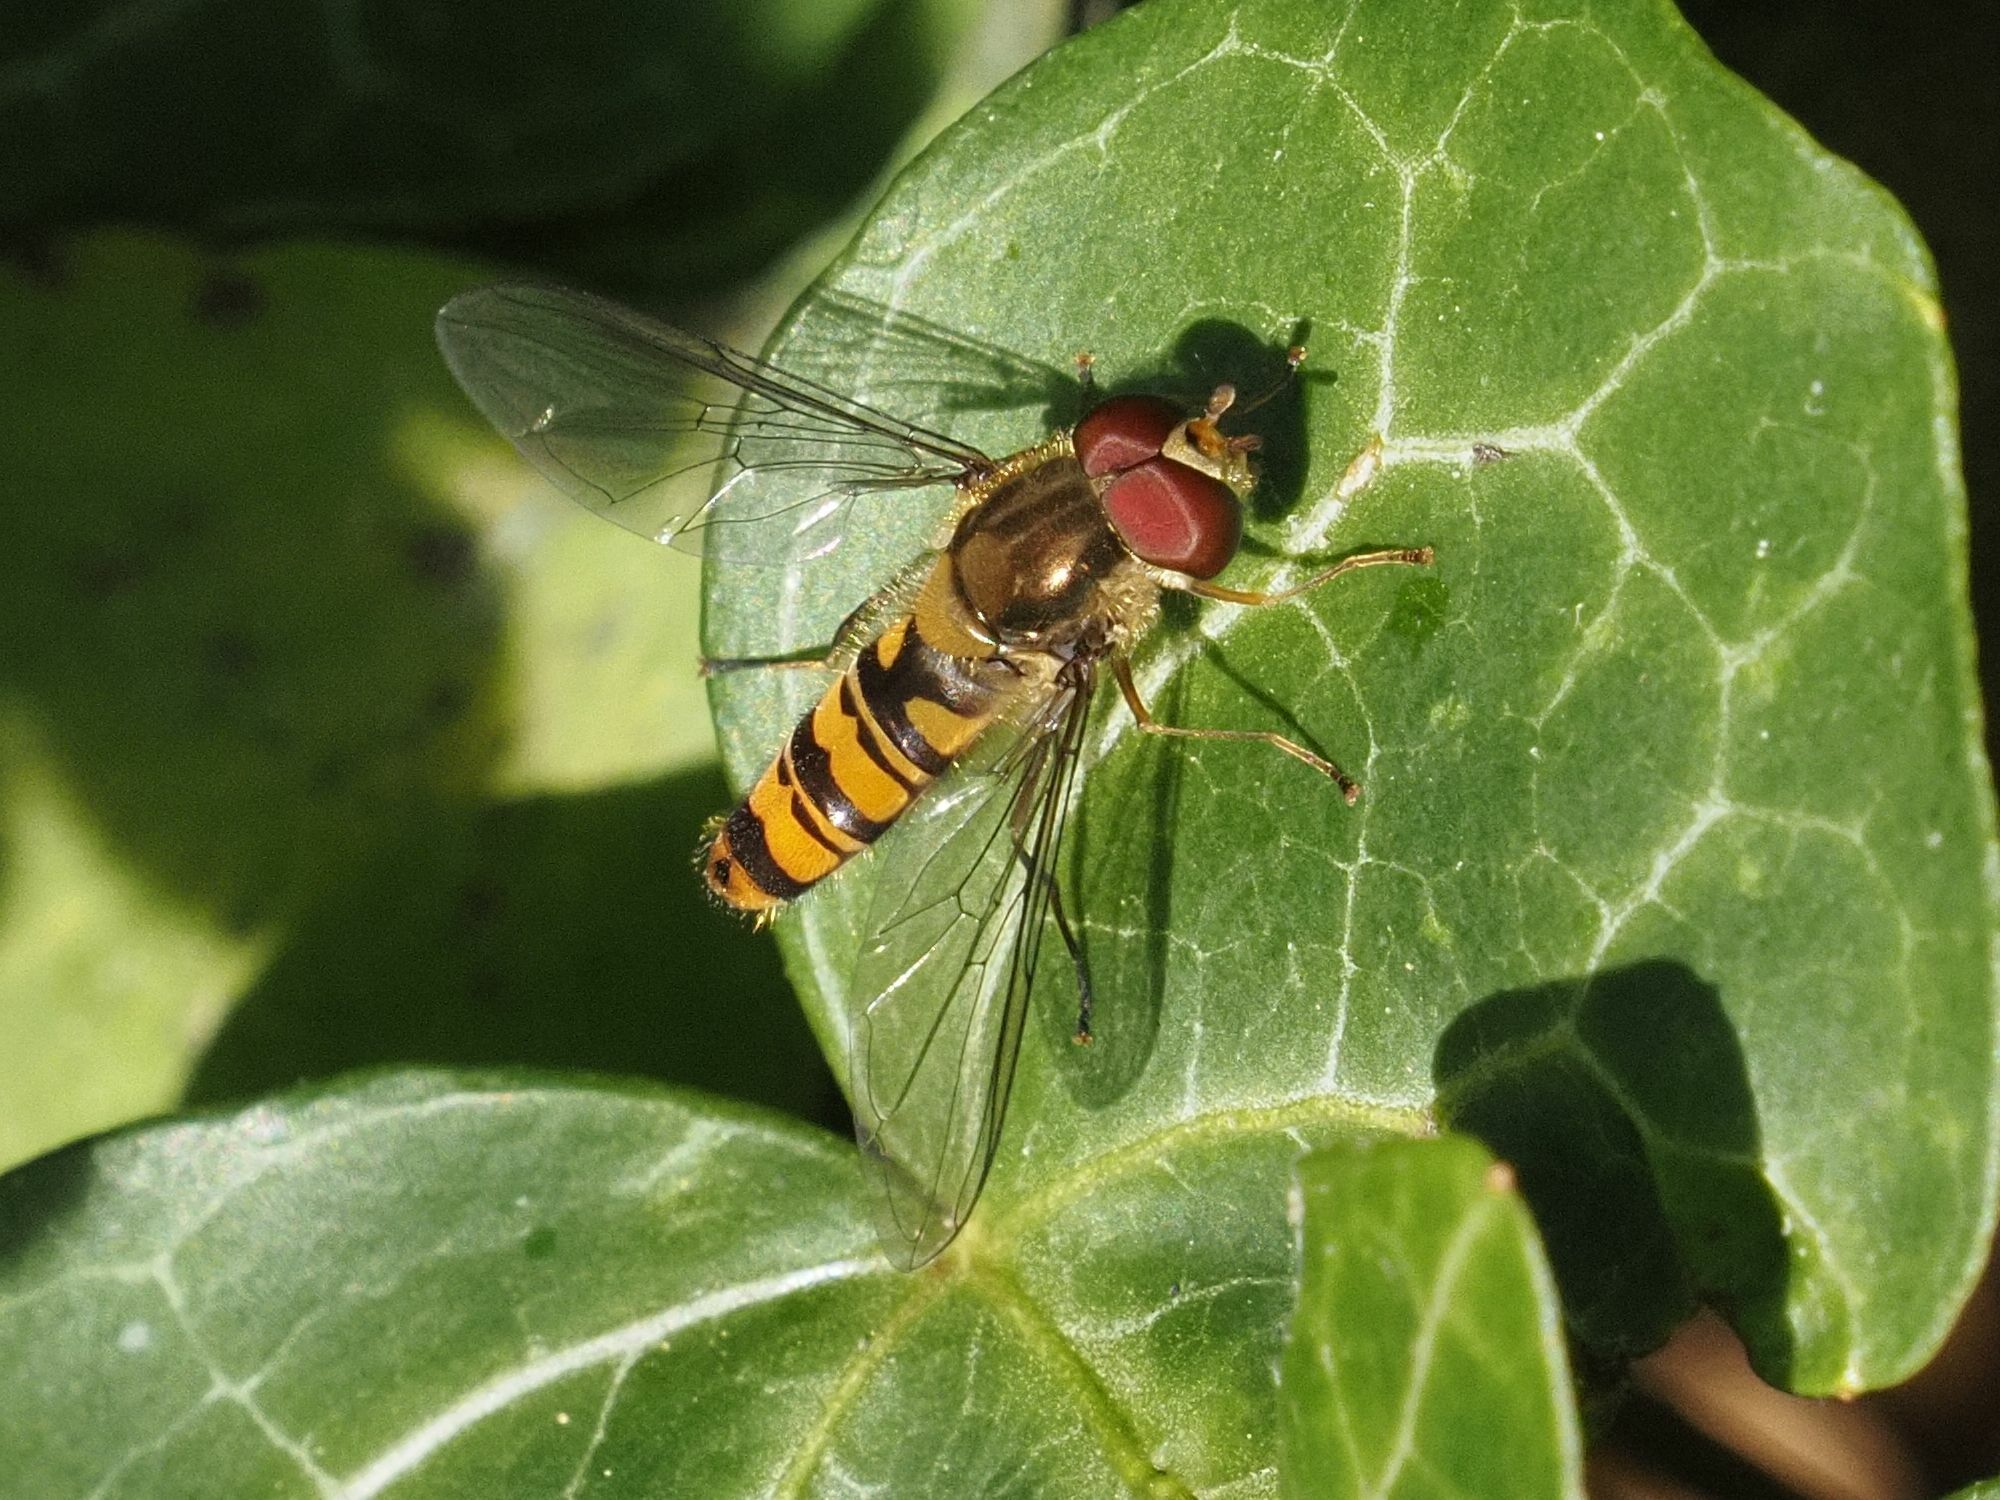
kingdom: Animalia
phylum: Arthropoda
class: Insecta
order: Diptera
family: Syrphidae
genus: Episyrphus
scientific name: Episyrphus balteatus
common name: Marmalade hoverfly
